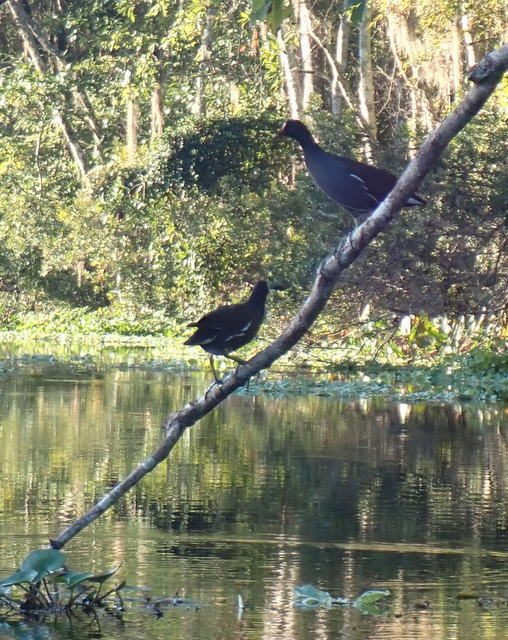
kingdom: Animalia
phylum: Chordata
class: Aves
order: Gruiformes
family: Rallidae
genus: Gallinula
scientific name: Gallinula chloropus
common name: Common moorhen
